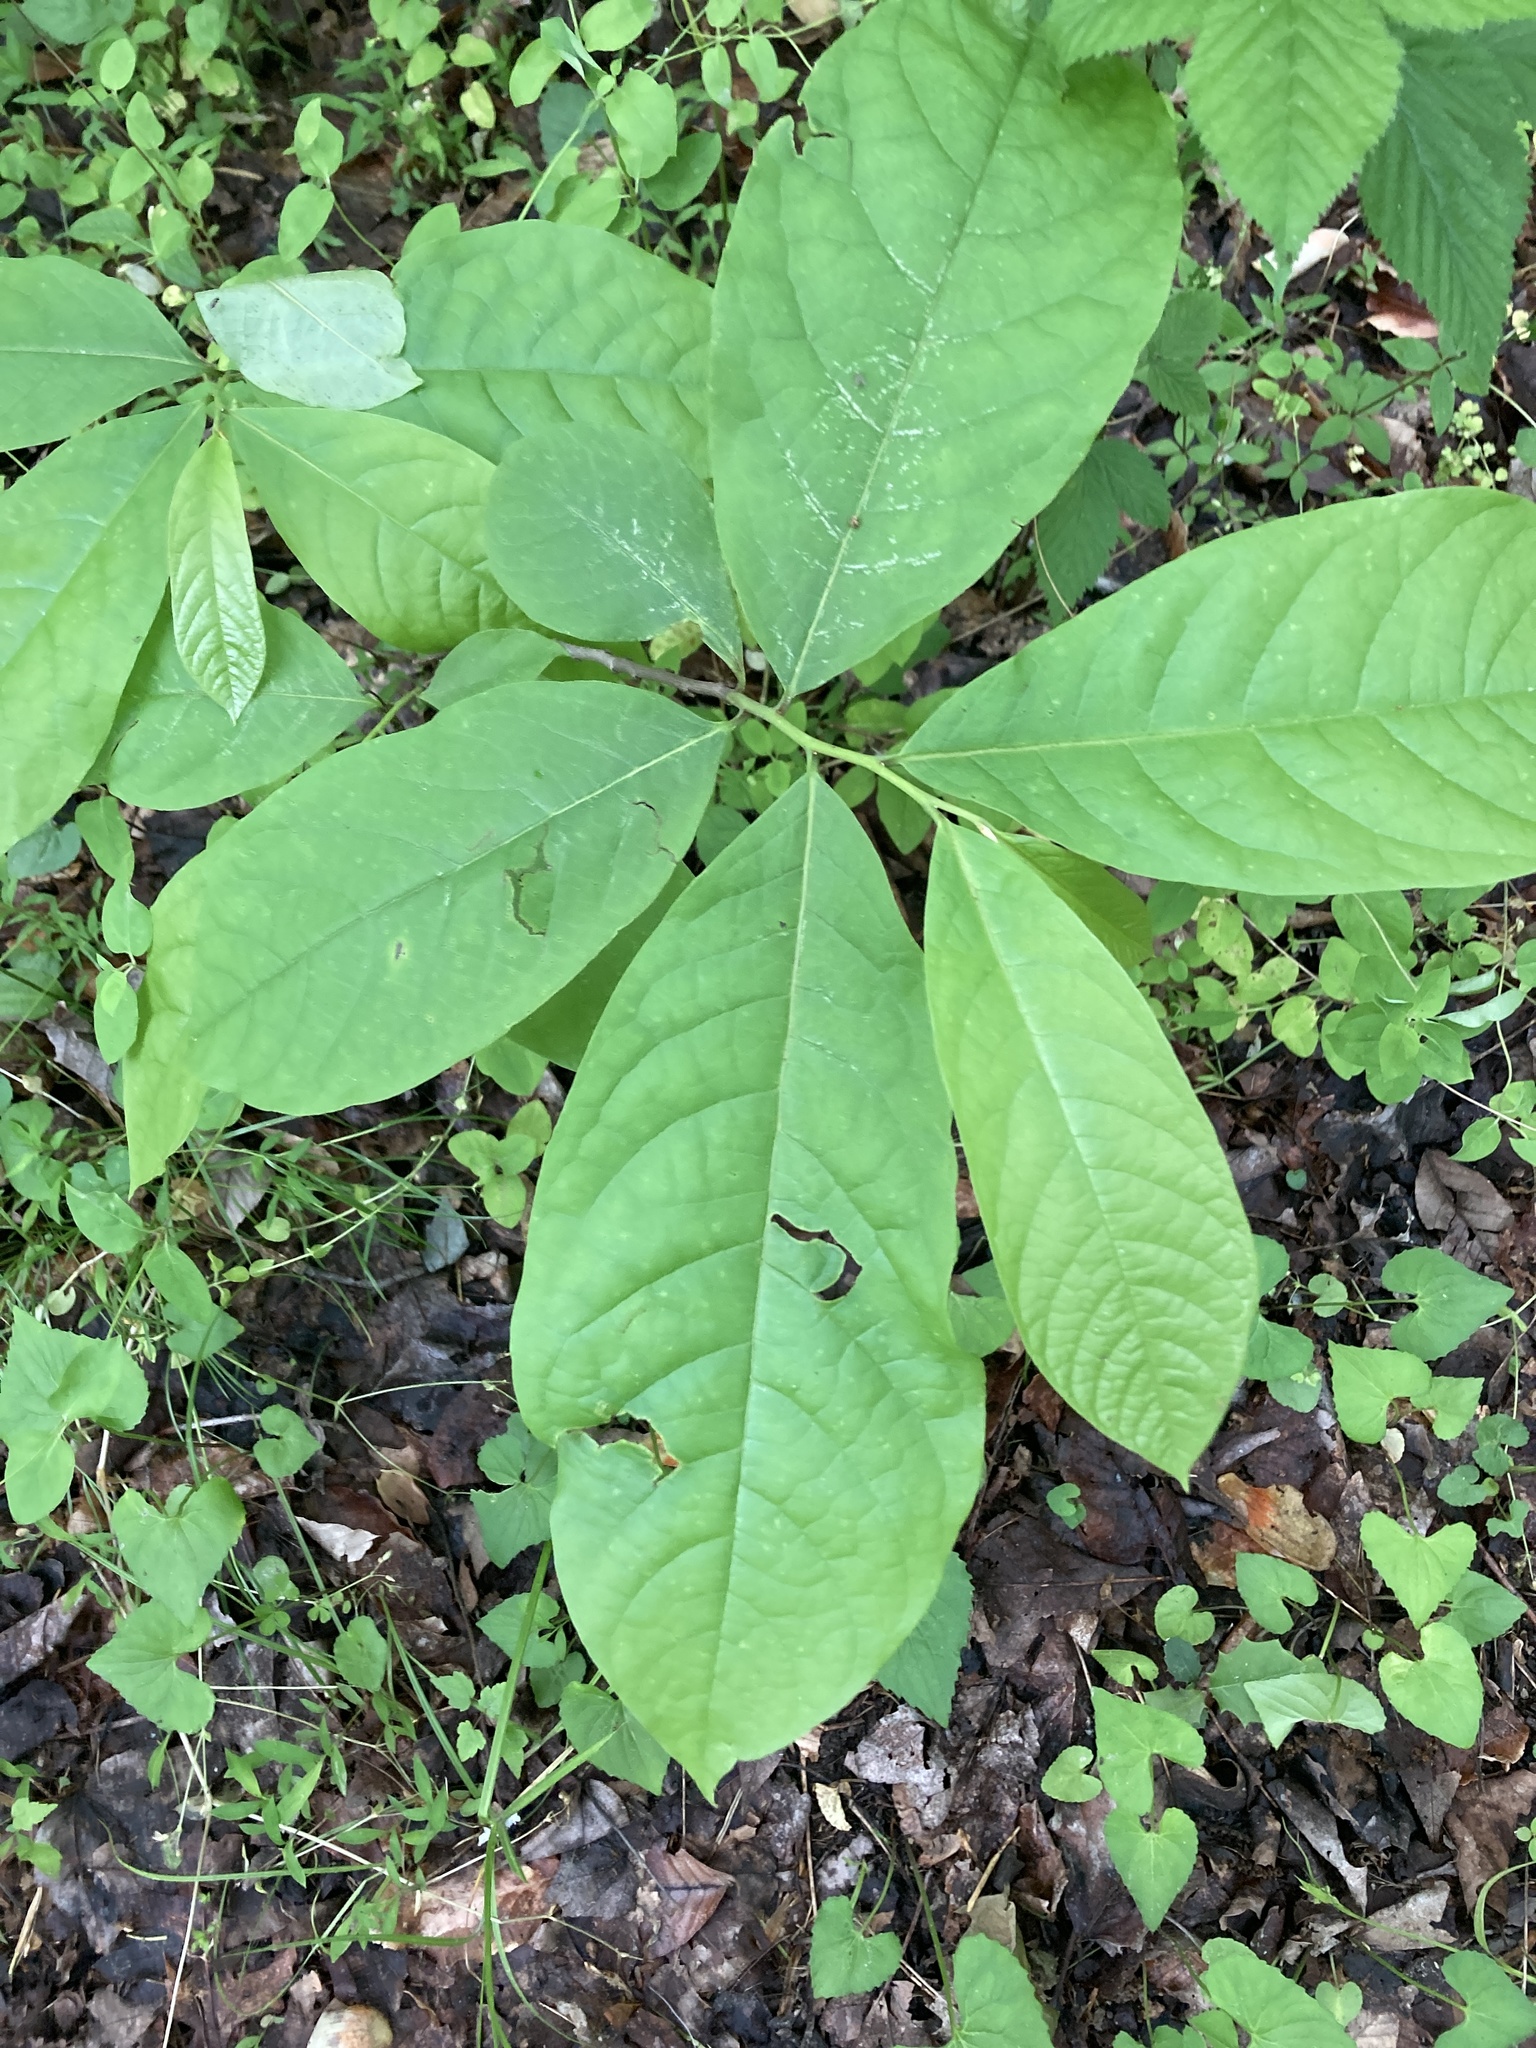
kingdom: Plantae
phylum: Tracheophyta
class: Magnoliopsida
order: Magnoliales
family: Annonaceae
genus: Asimina
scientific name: Asimina triloba
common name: Dog-banana
